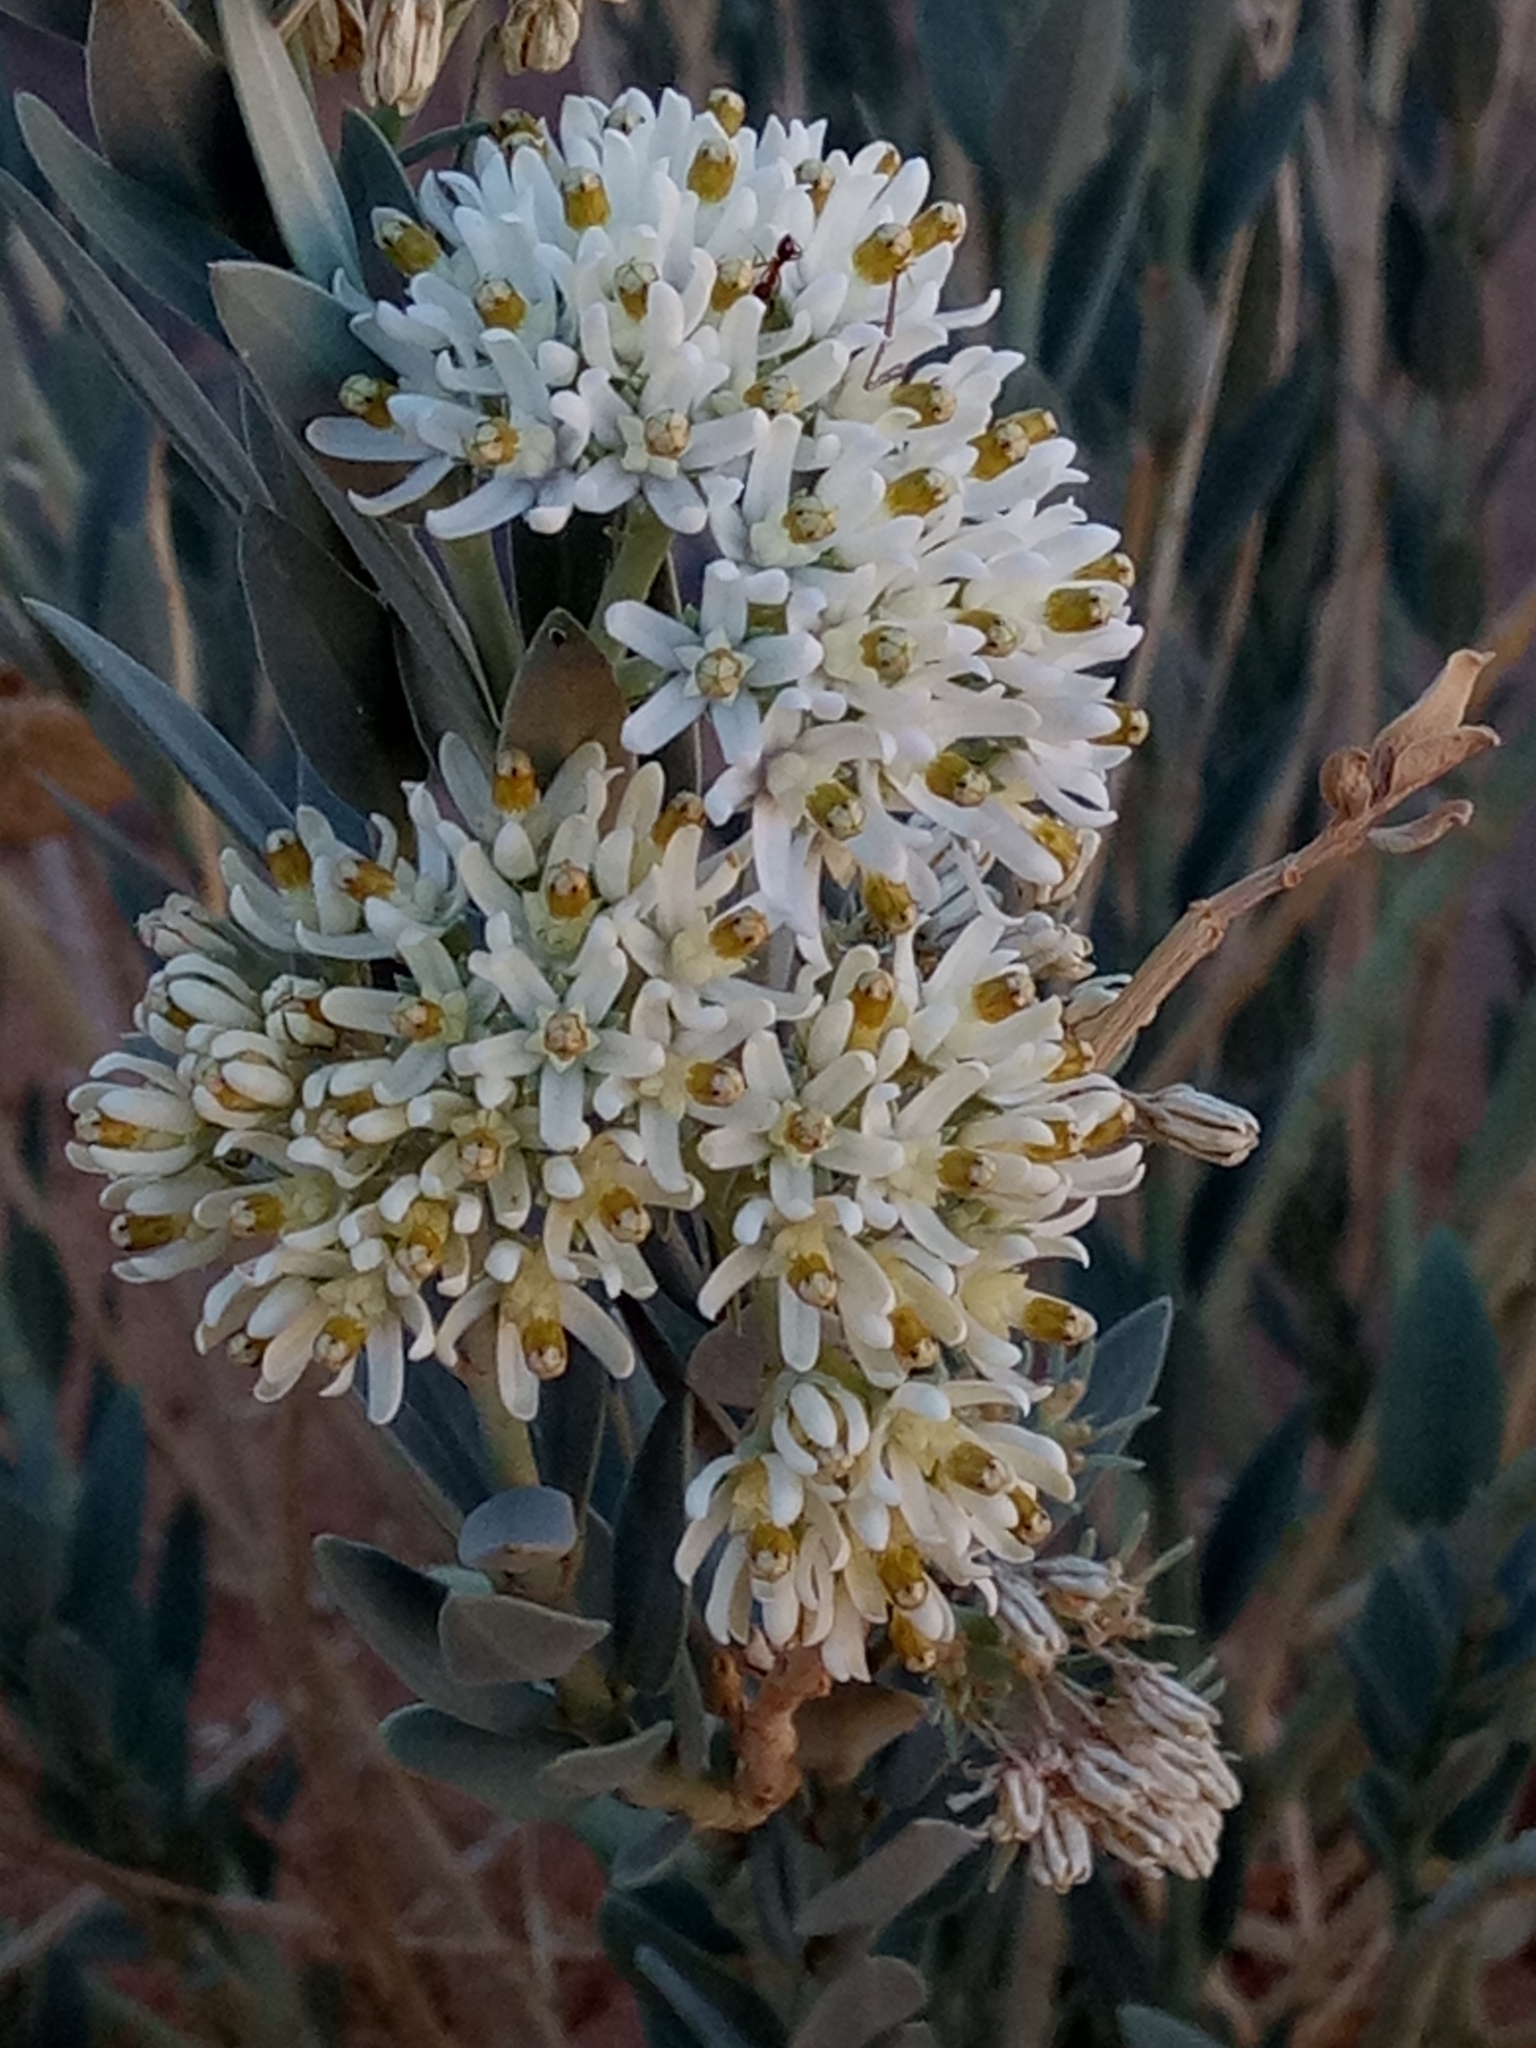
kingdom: Plantae
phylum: Tracheophyta
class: Magnoliopsida
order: Gentianales
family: Apocynaceae
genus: Solenostemma
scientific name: Solenostemma oleifolium
